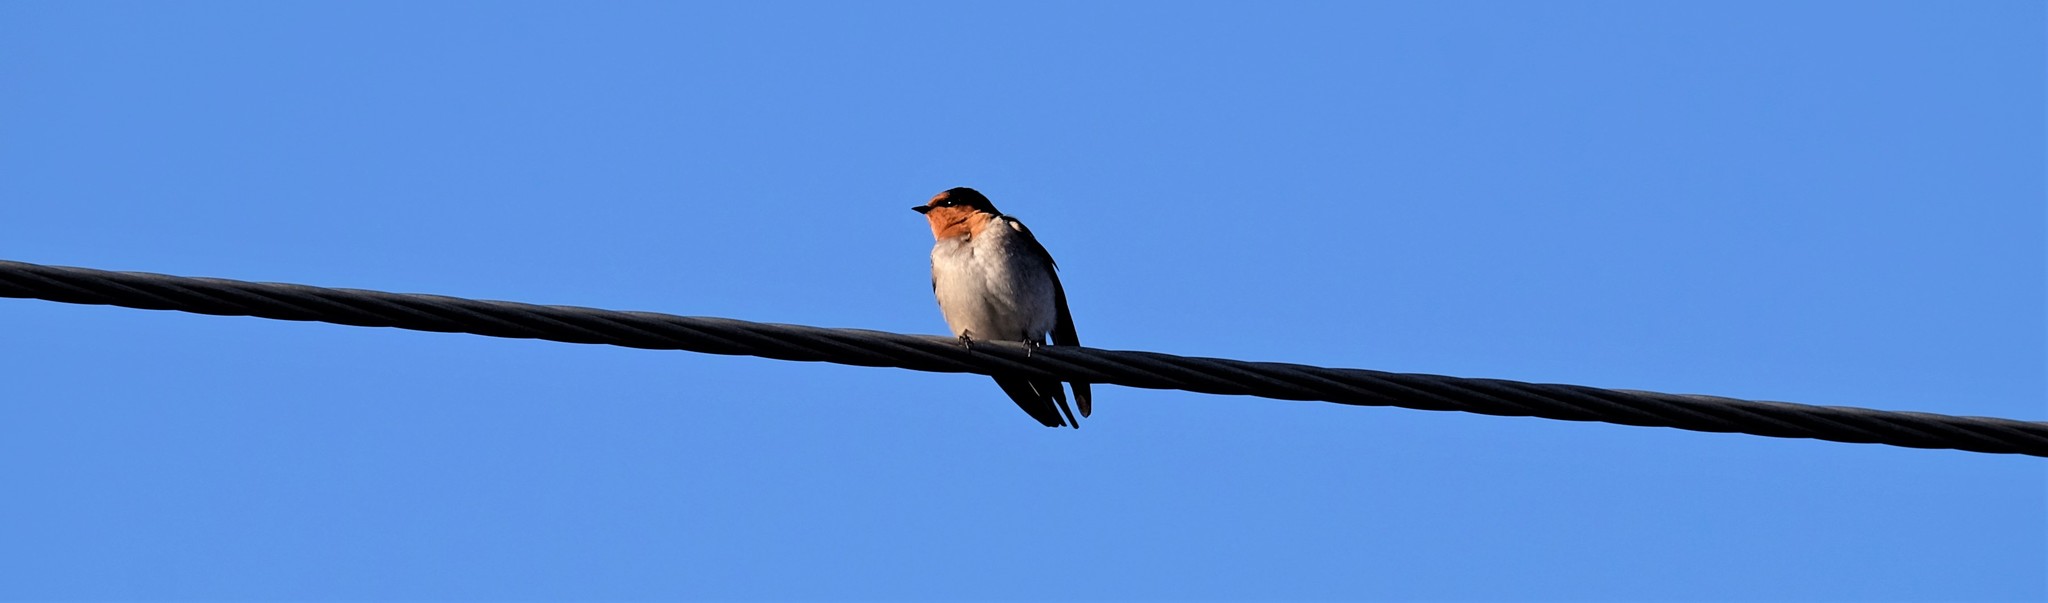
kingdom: Animalia
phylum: Chordata
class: Aves
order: Passeriformes
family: Hirundinidae
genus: Hirundo
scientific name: Hirundo neoxena
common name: Welcome swallow
